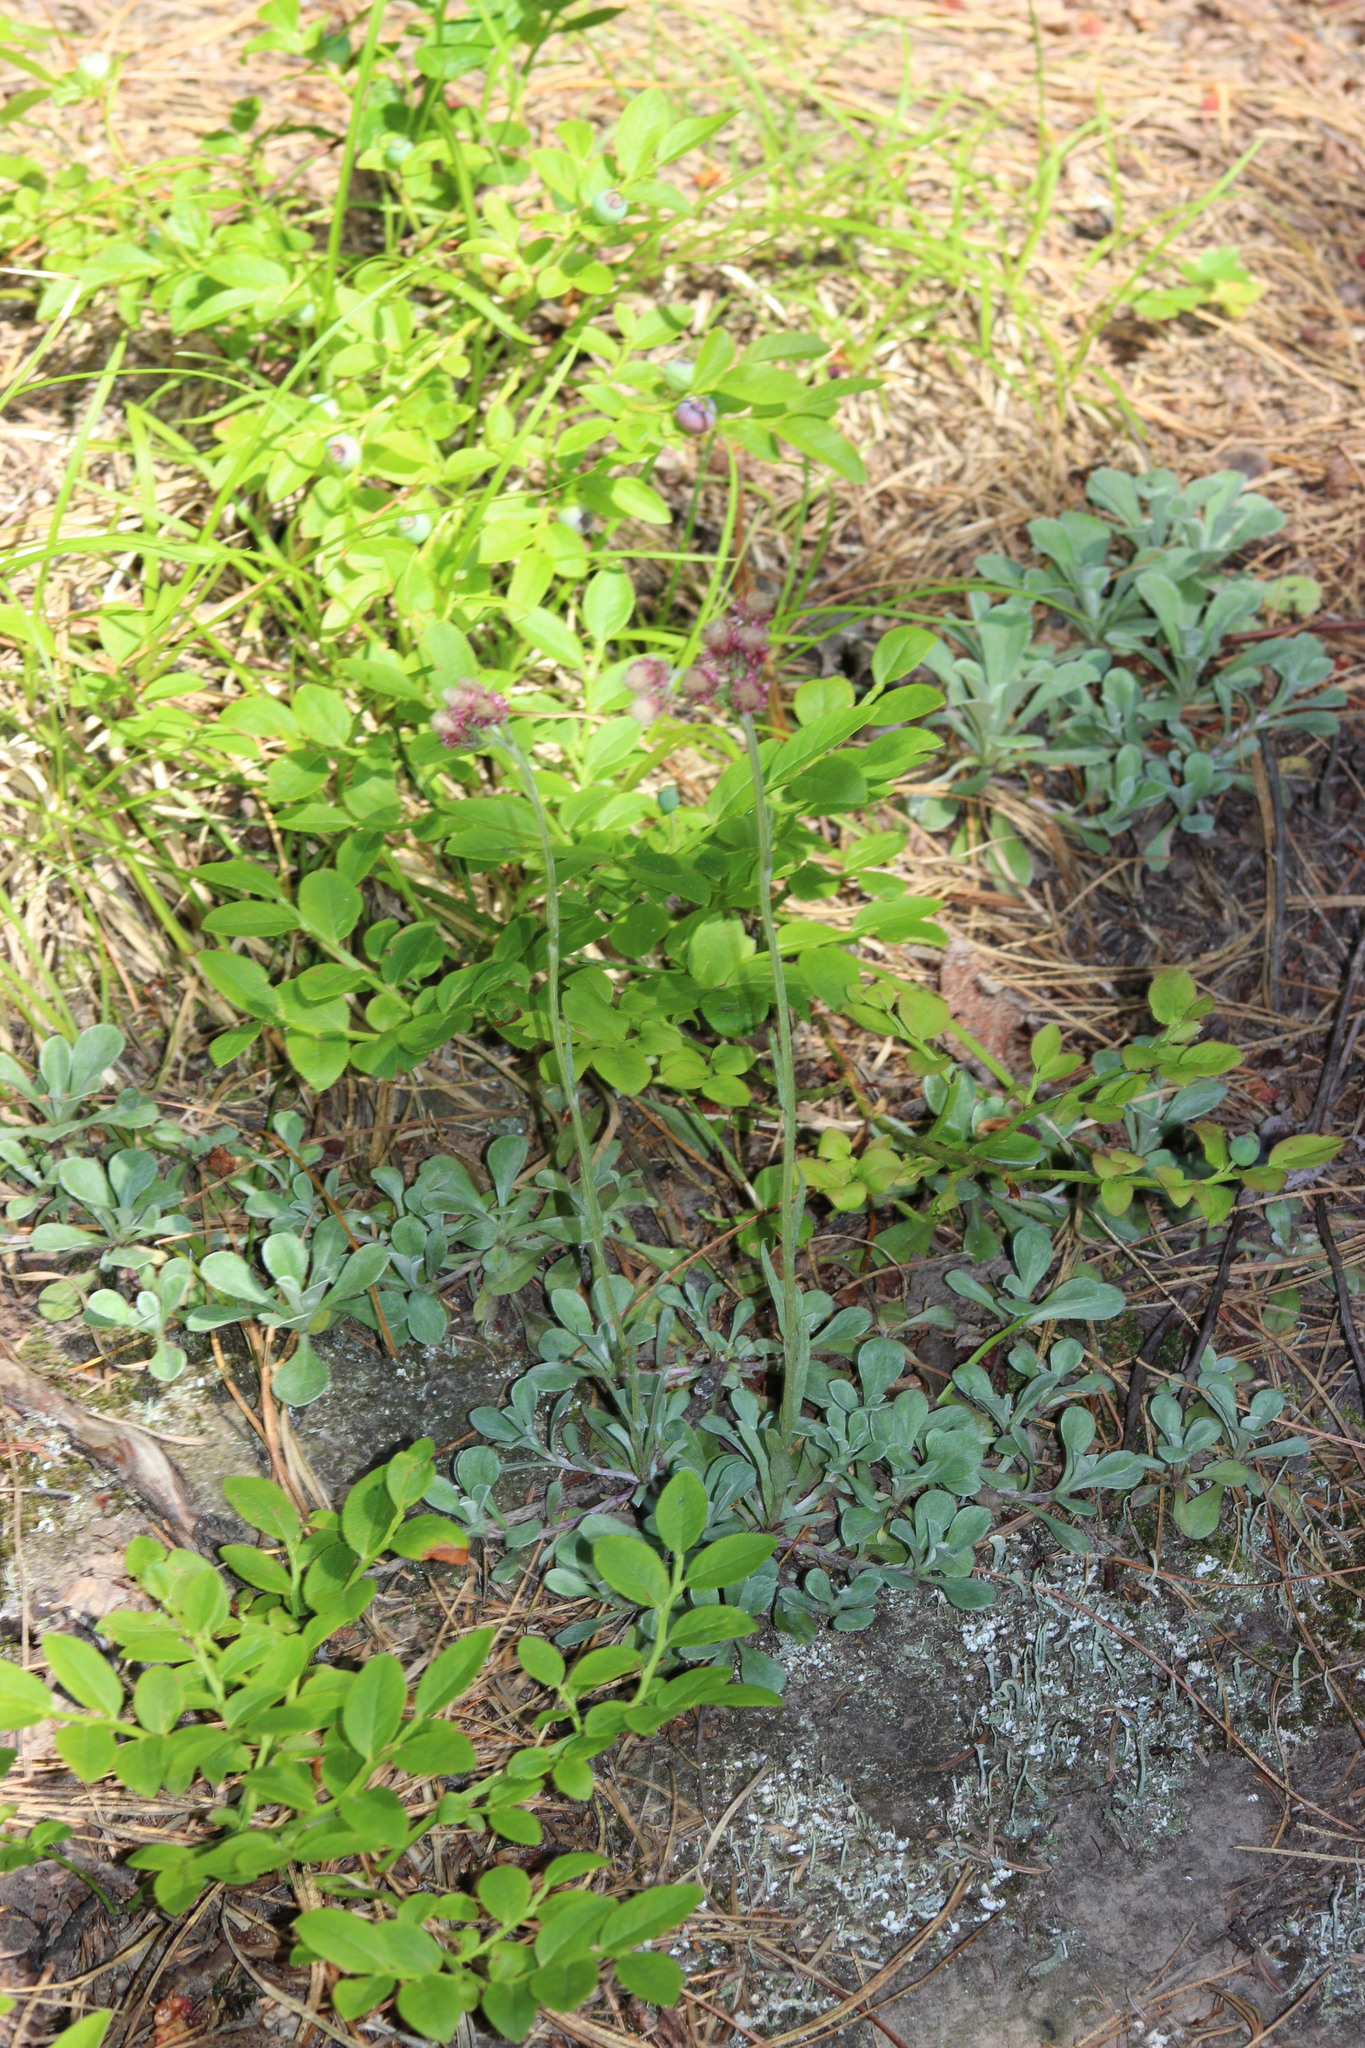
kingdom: Plantae
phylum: Tracheophyta
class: Magnoliopsida
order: Asterales
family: Asteraceae
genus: Antennaria
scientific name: Antennaria dioica
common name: Mountain everlasting
